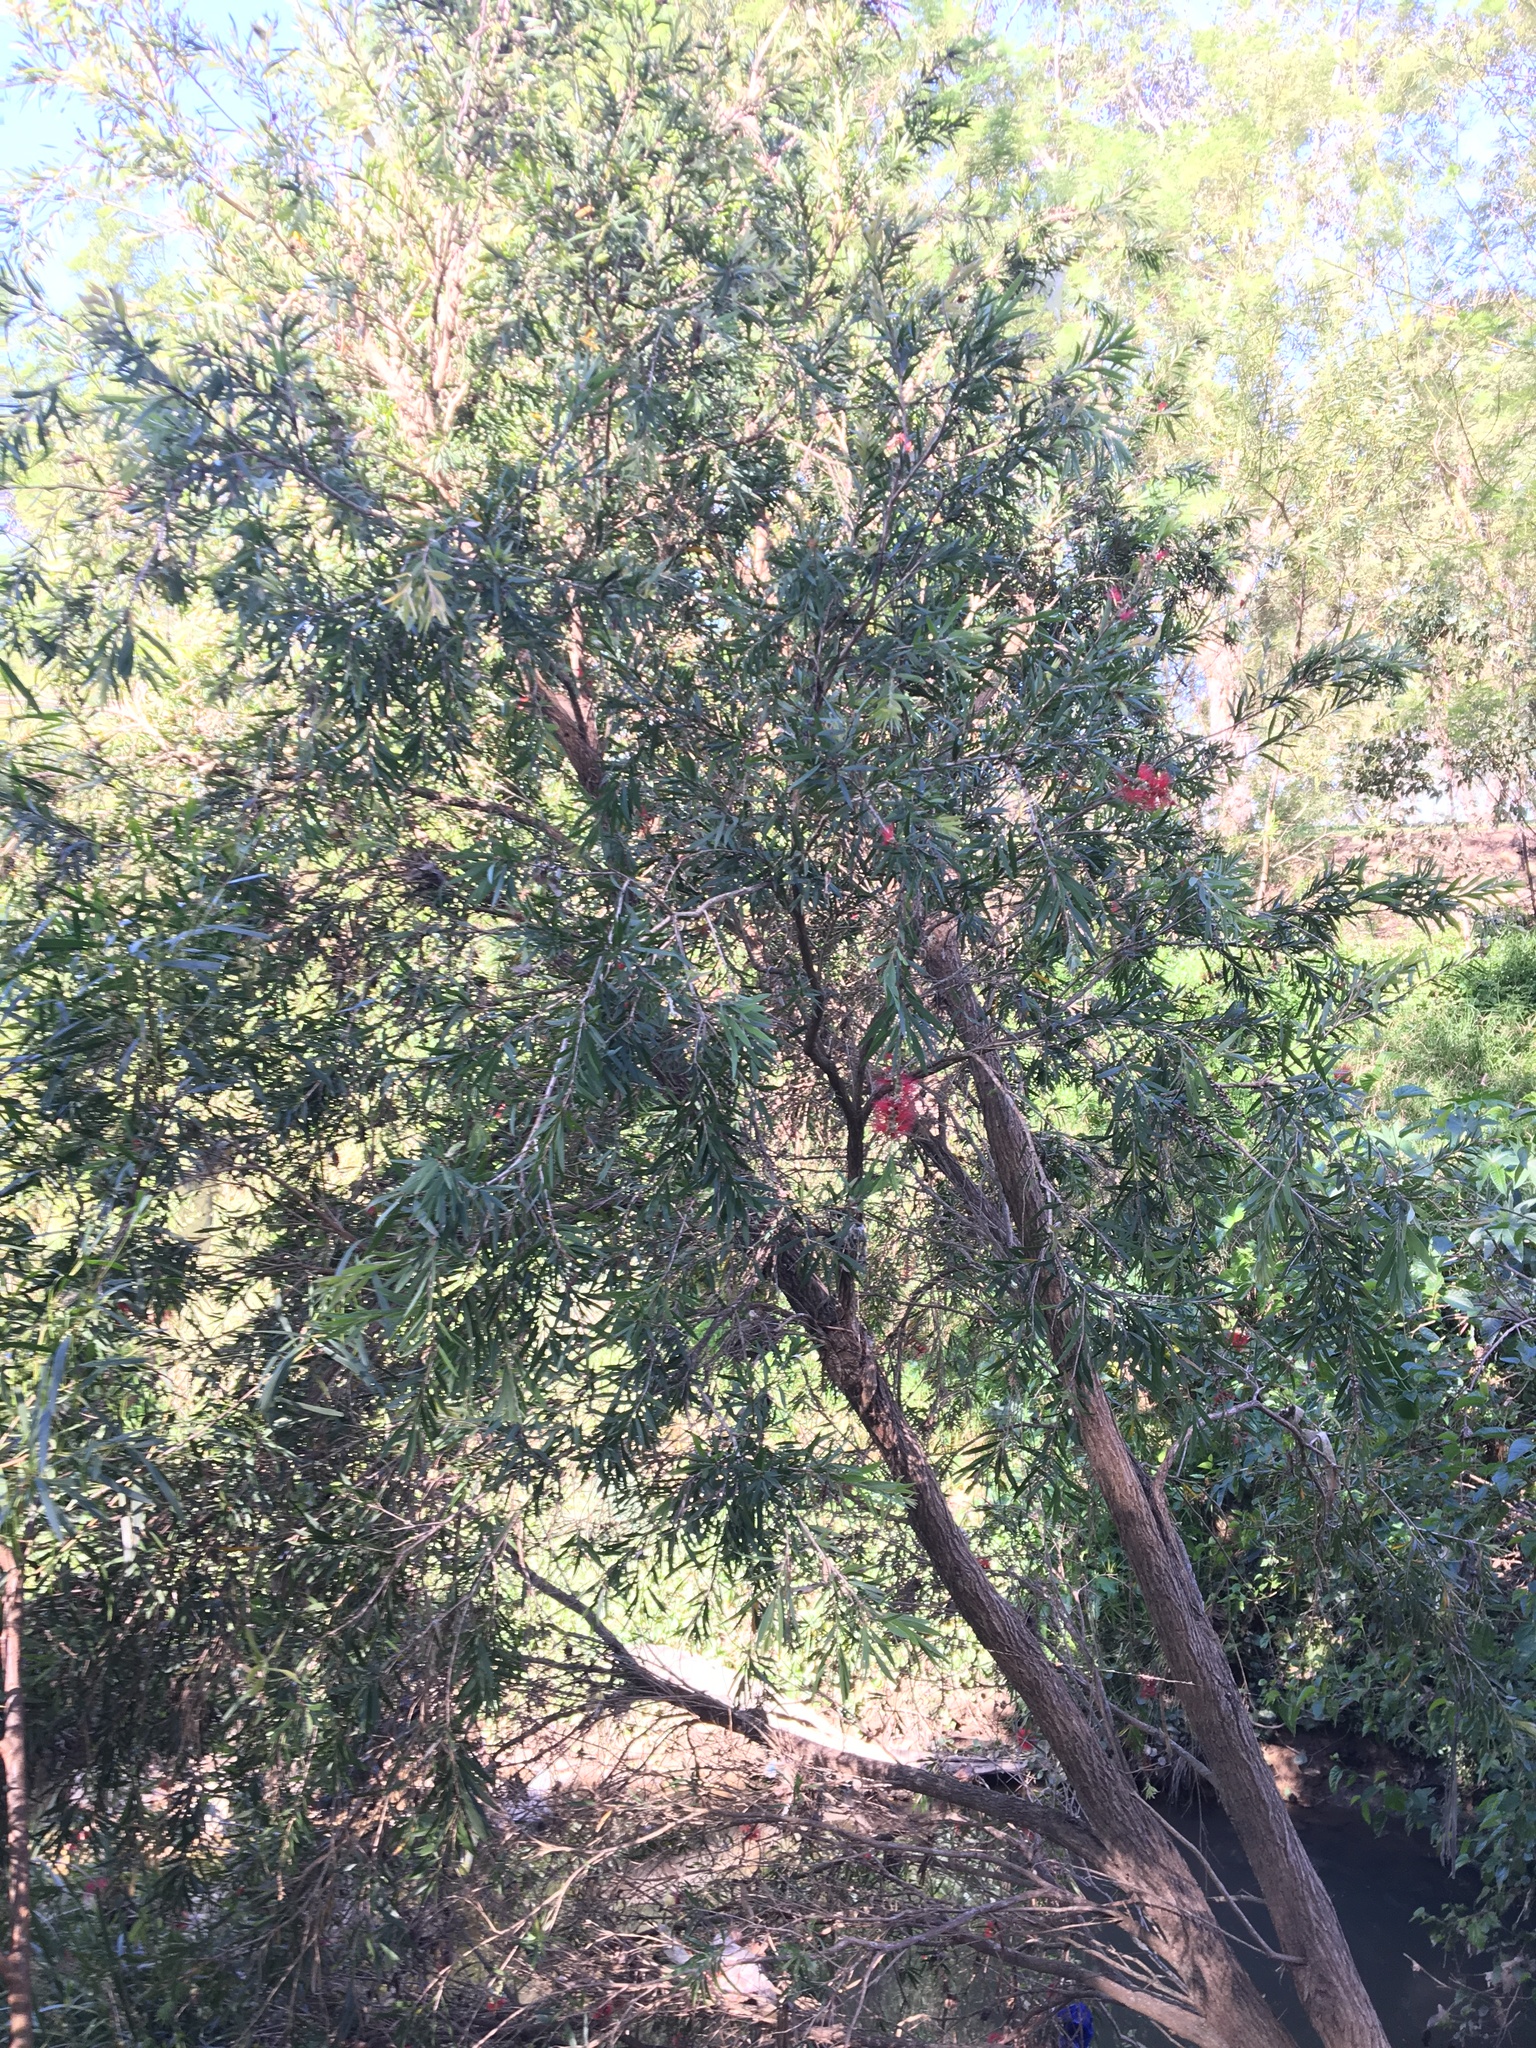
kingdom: Plantae
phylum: Tracheophyta
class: Magnoliopsida
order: Myrtales
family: Myrtaceae
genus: Callistemon
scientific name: Callistemon viminalis
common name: Drooping bottlebrush
